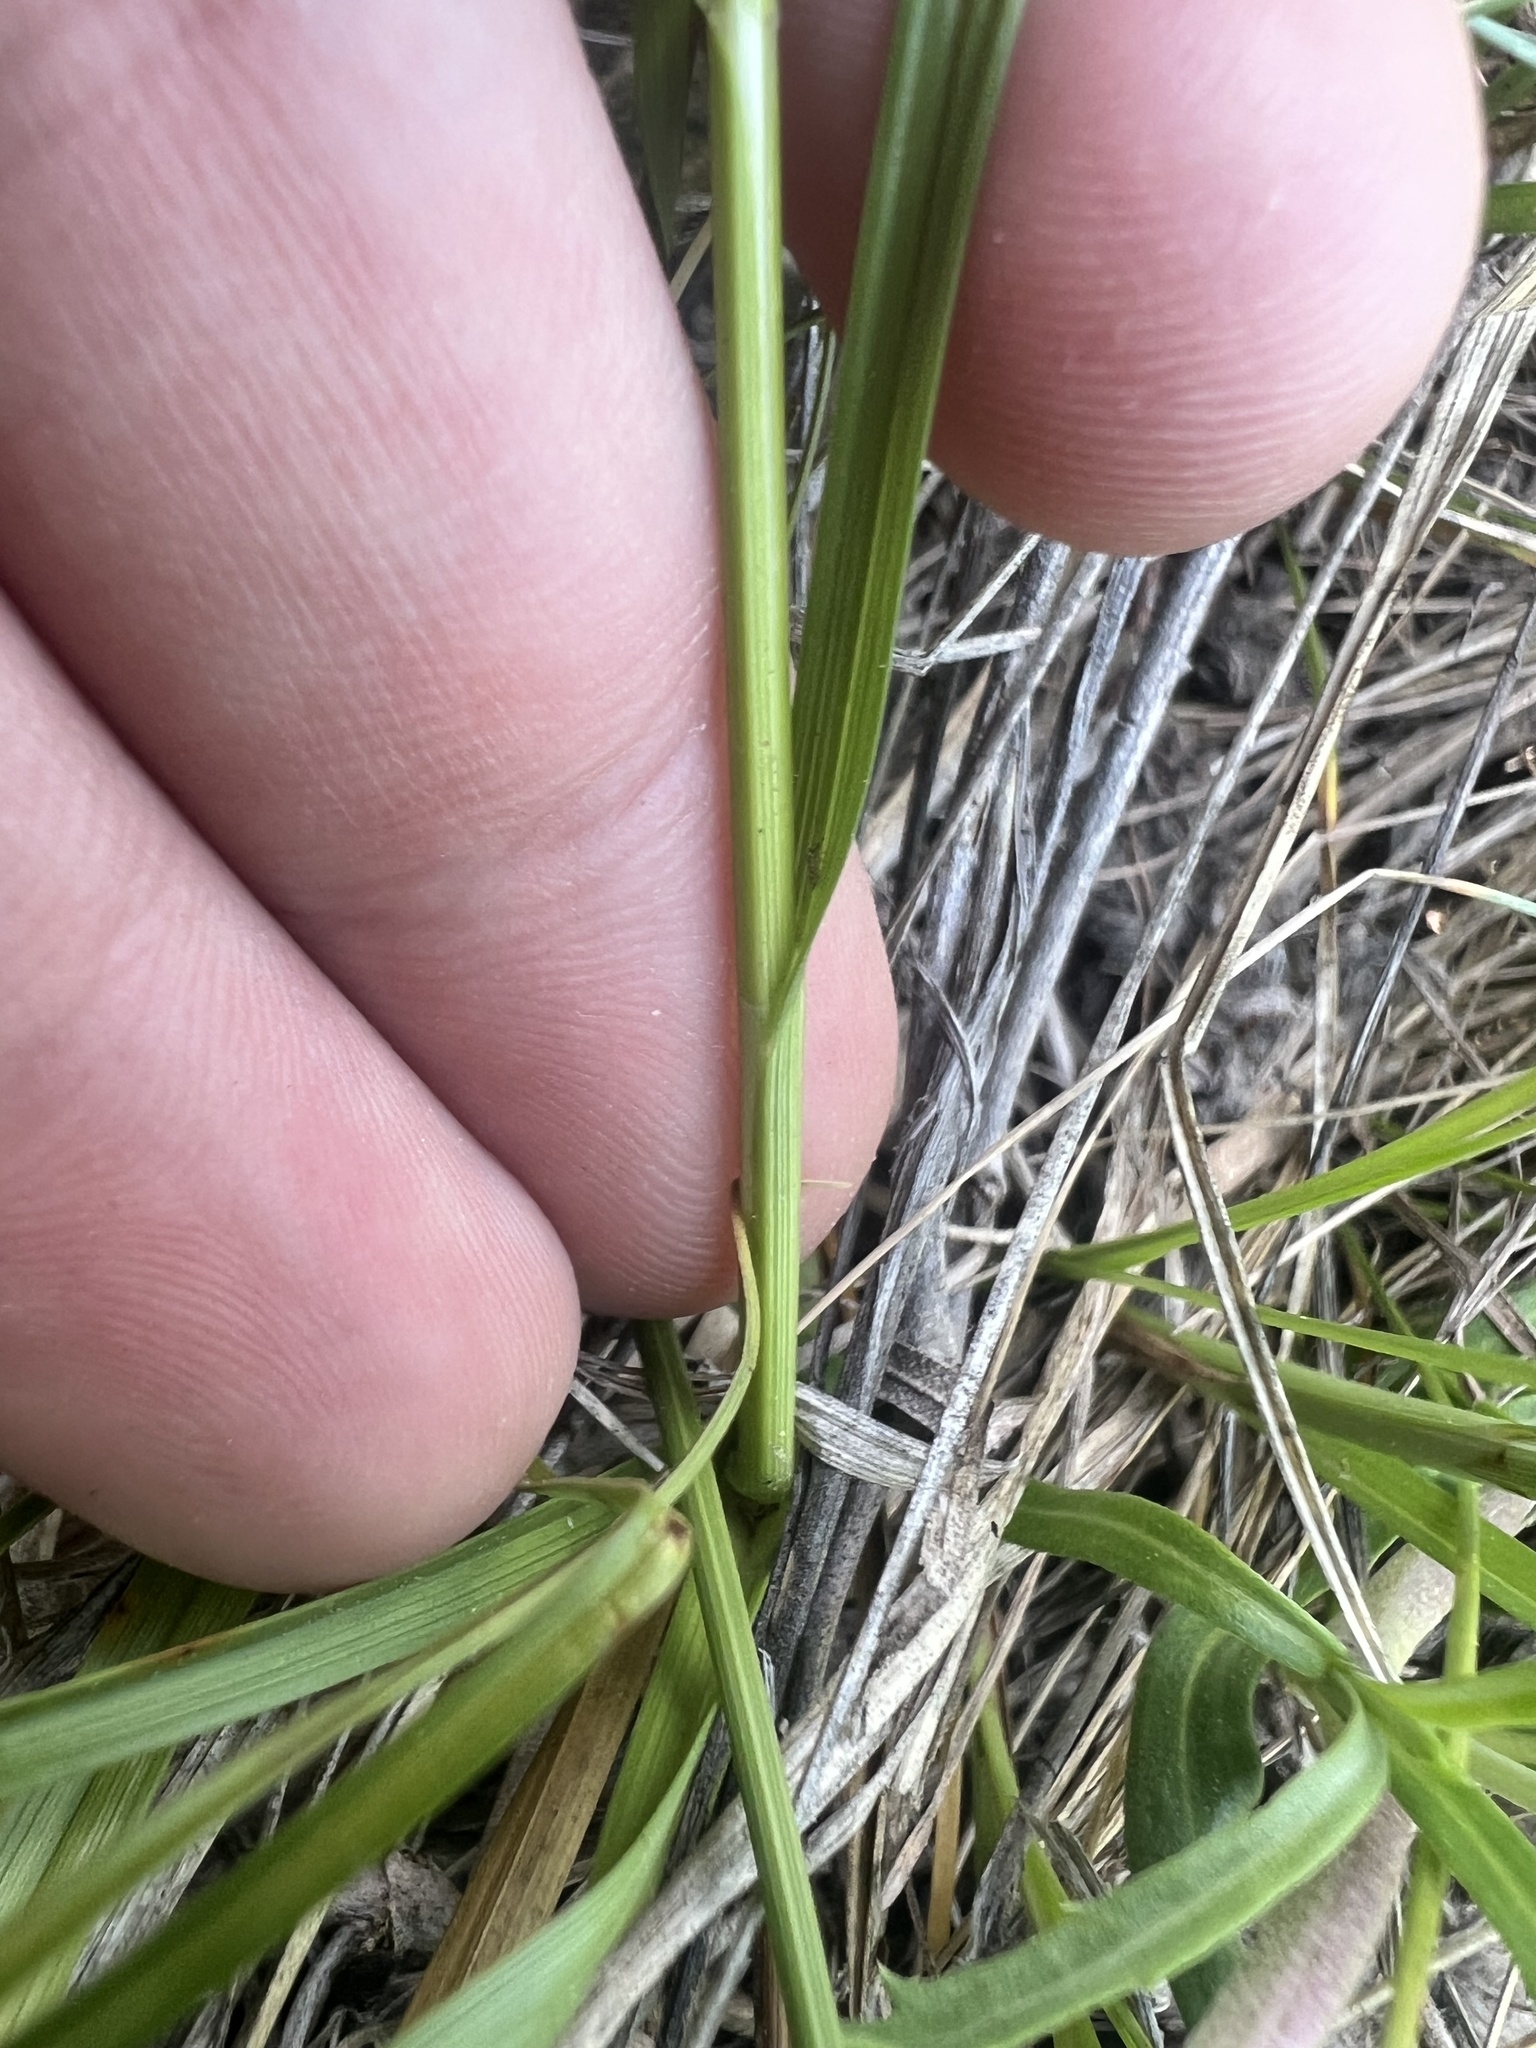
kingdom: Plantae
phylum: Tracheophyta
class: Liliopsida
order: Poales
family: Cyperaceae
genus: Carex
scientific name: Carex brevior
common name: Brevior sedge
